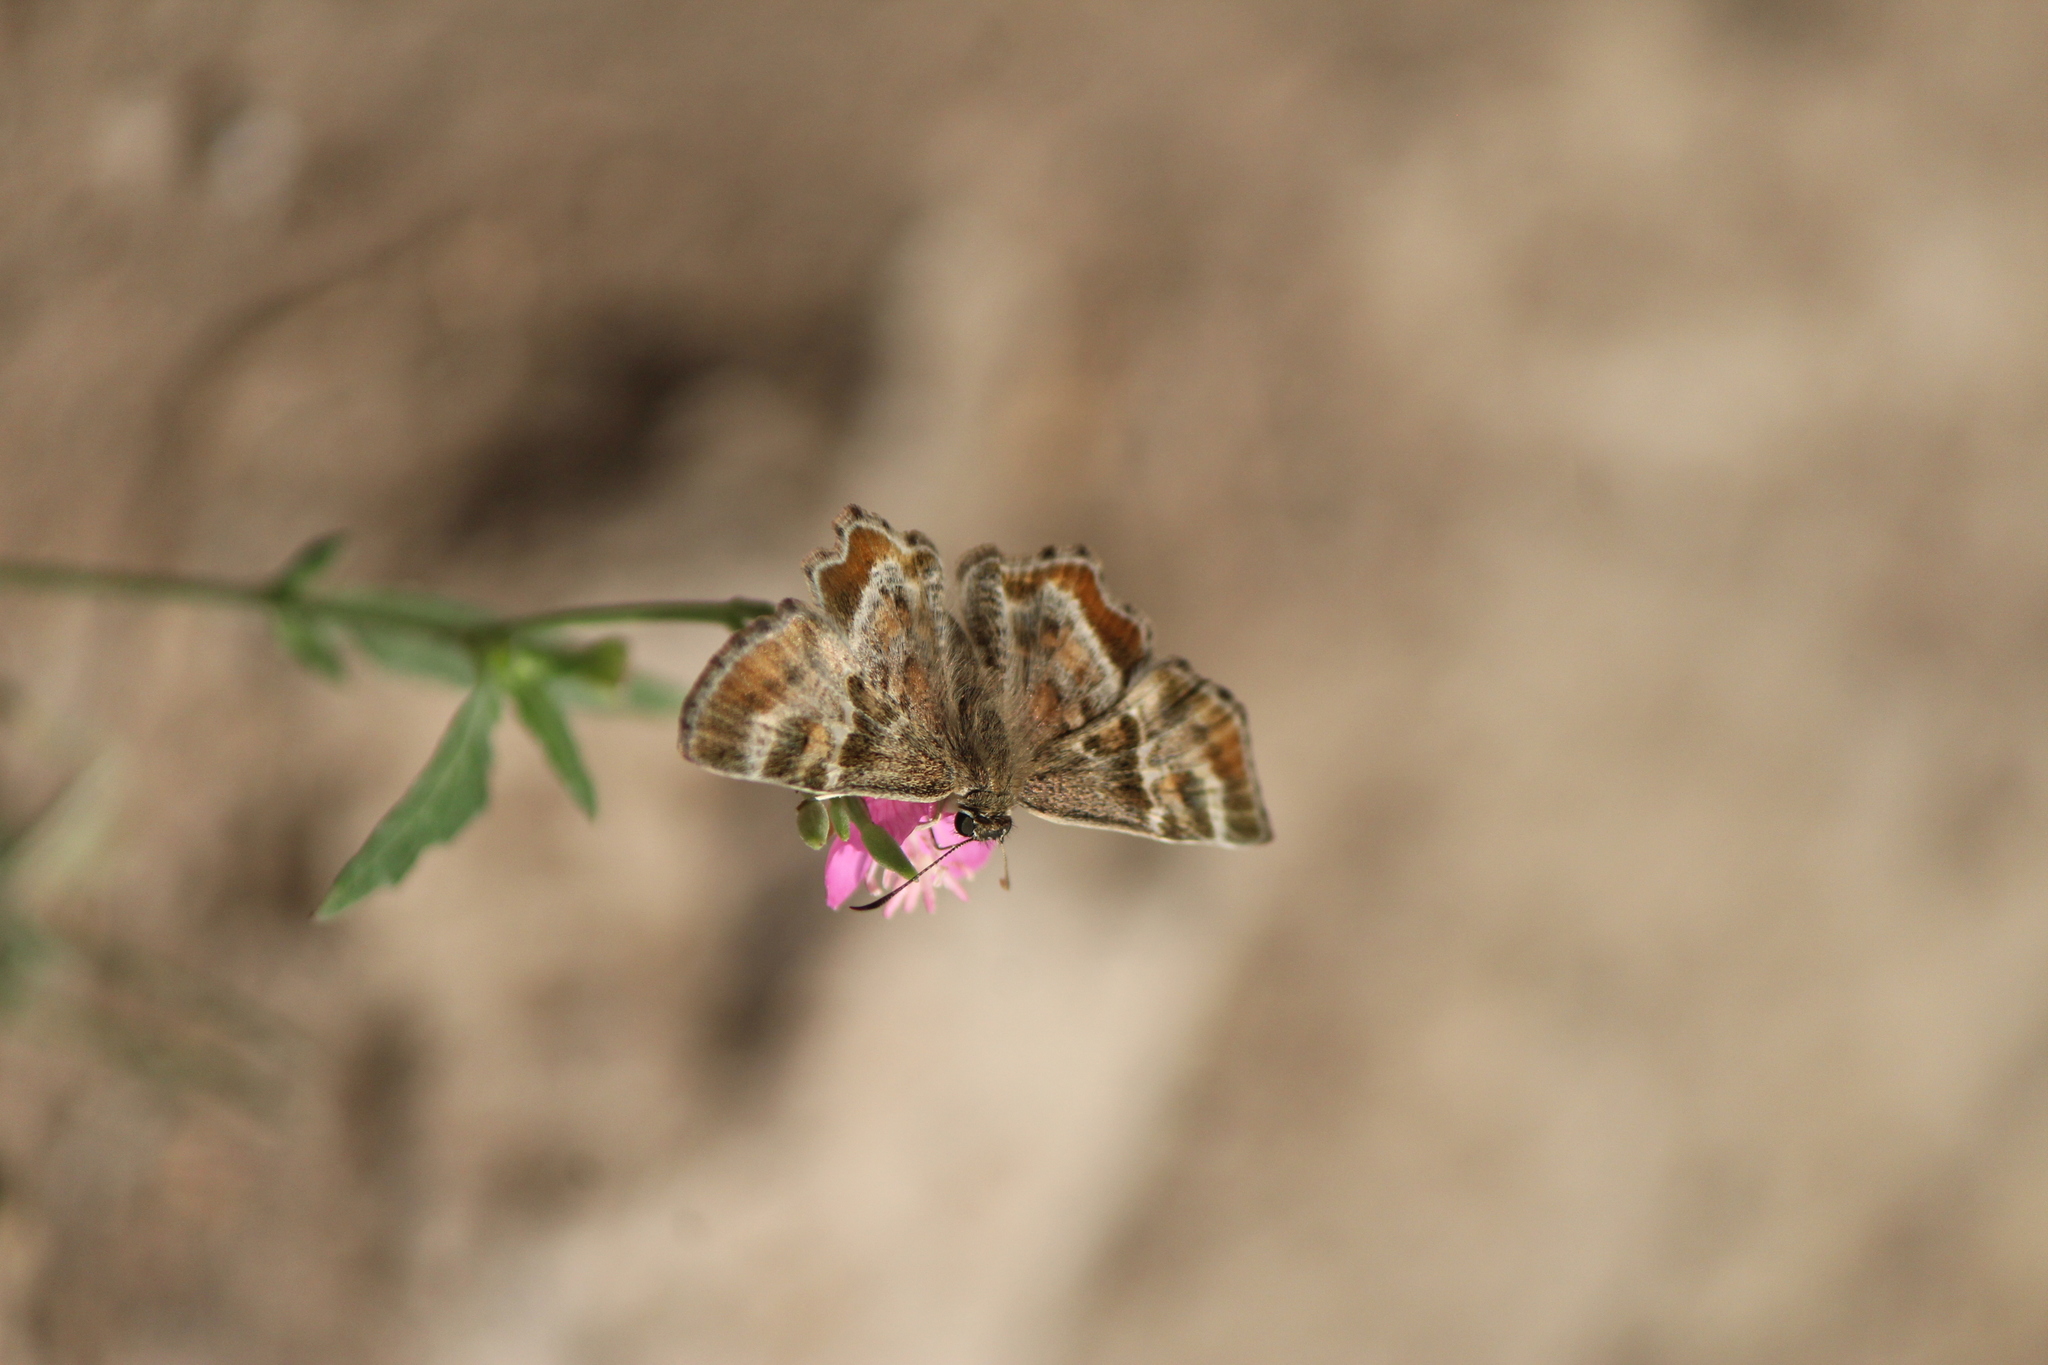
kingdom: Animalia
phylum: Arthropoda
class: Insecta
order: Lepidoptera
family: Hesperiidae
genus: Systasea
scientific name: Systasea pulverulenta
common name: Texas powdered skipper
